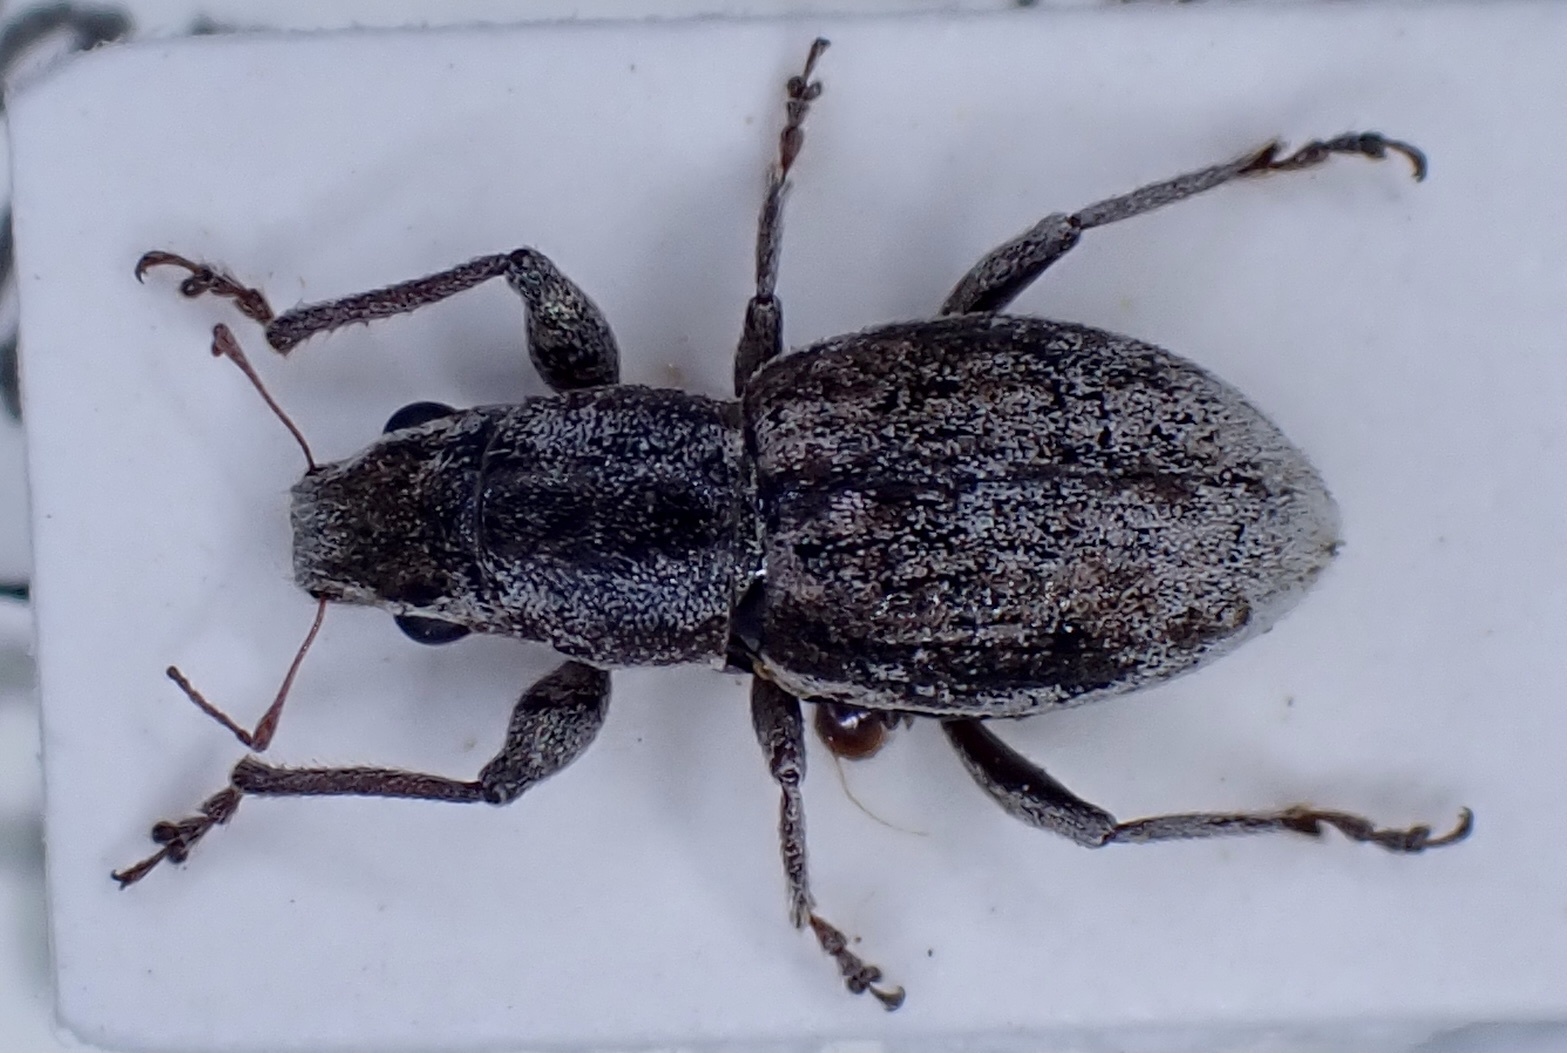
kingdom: Animalia
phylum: Arthropoda
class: Insecta
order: Coleoptera
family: Curculionidae
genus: Atrichonotus
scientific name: Atrichonotus taeniatulus
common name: Small lucerne weevil
